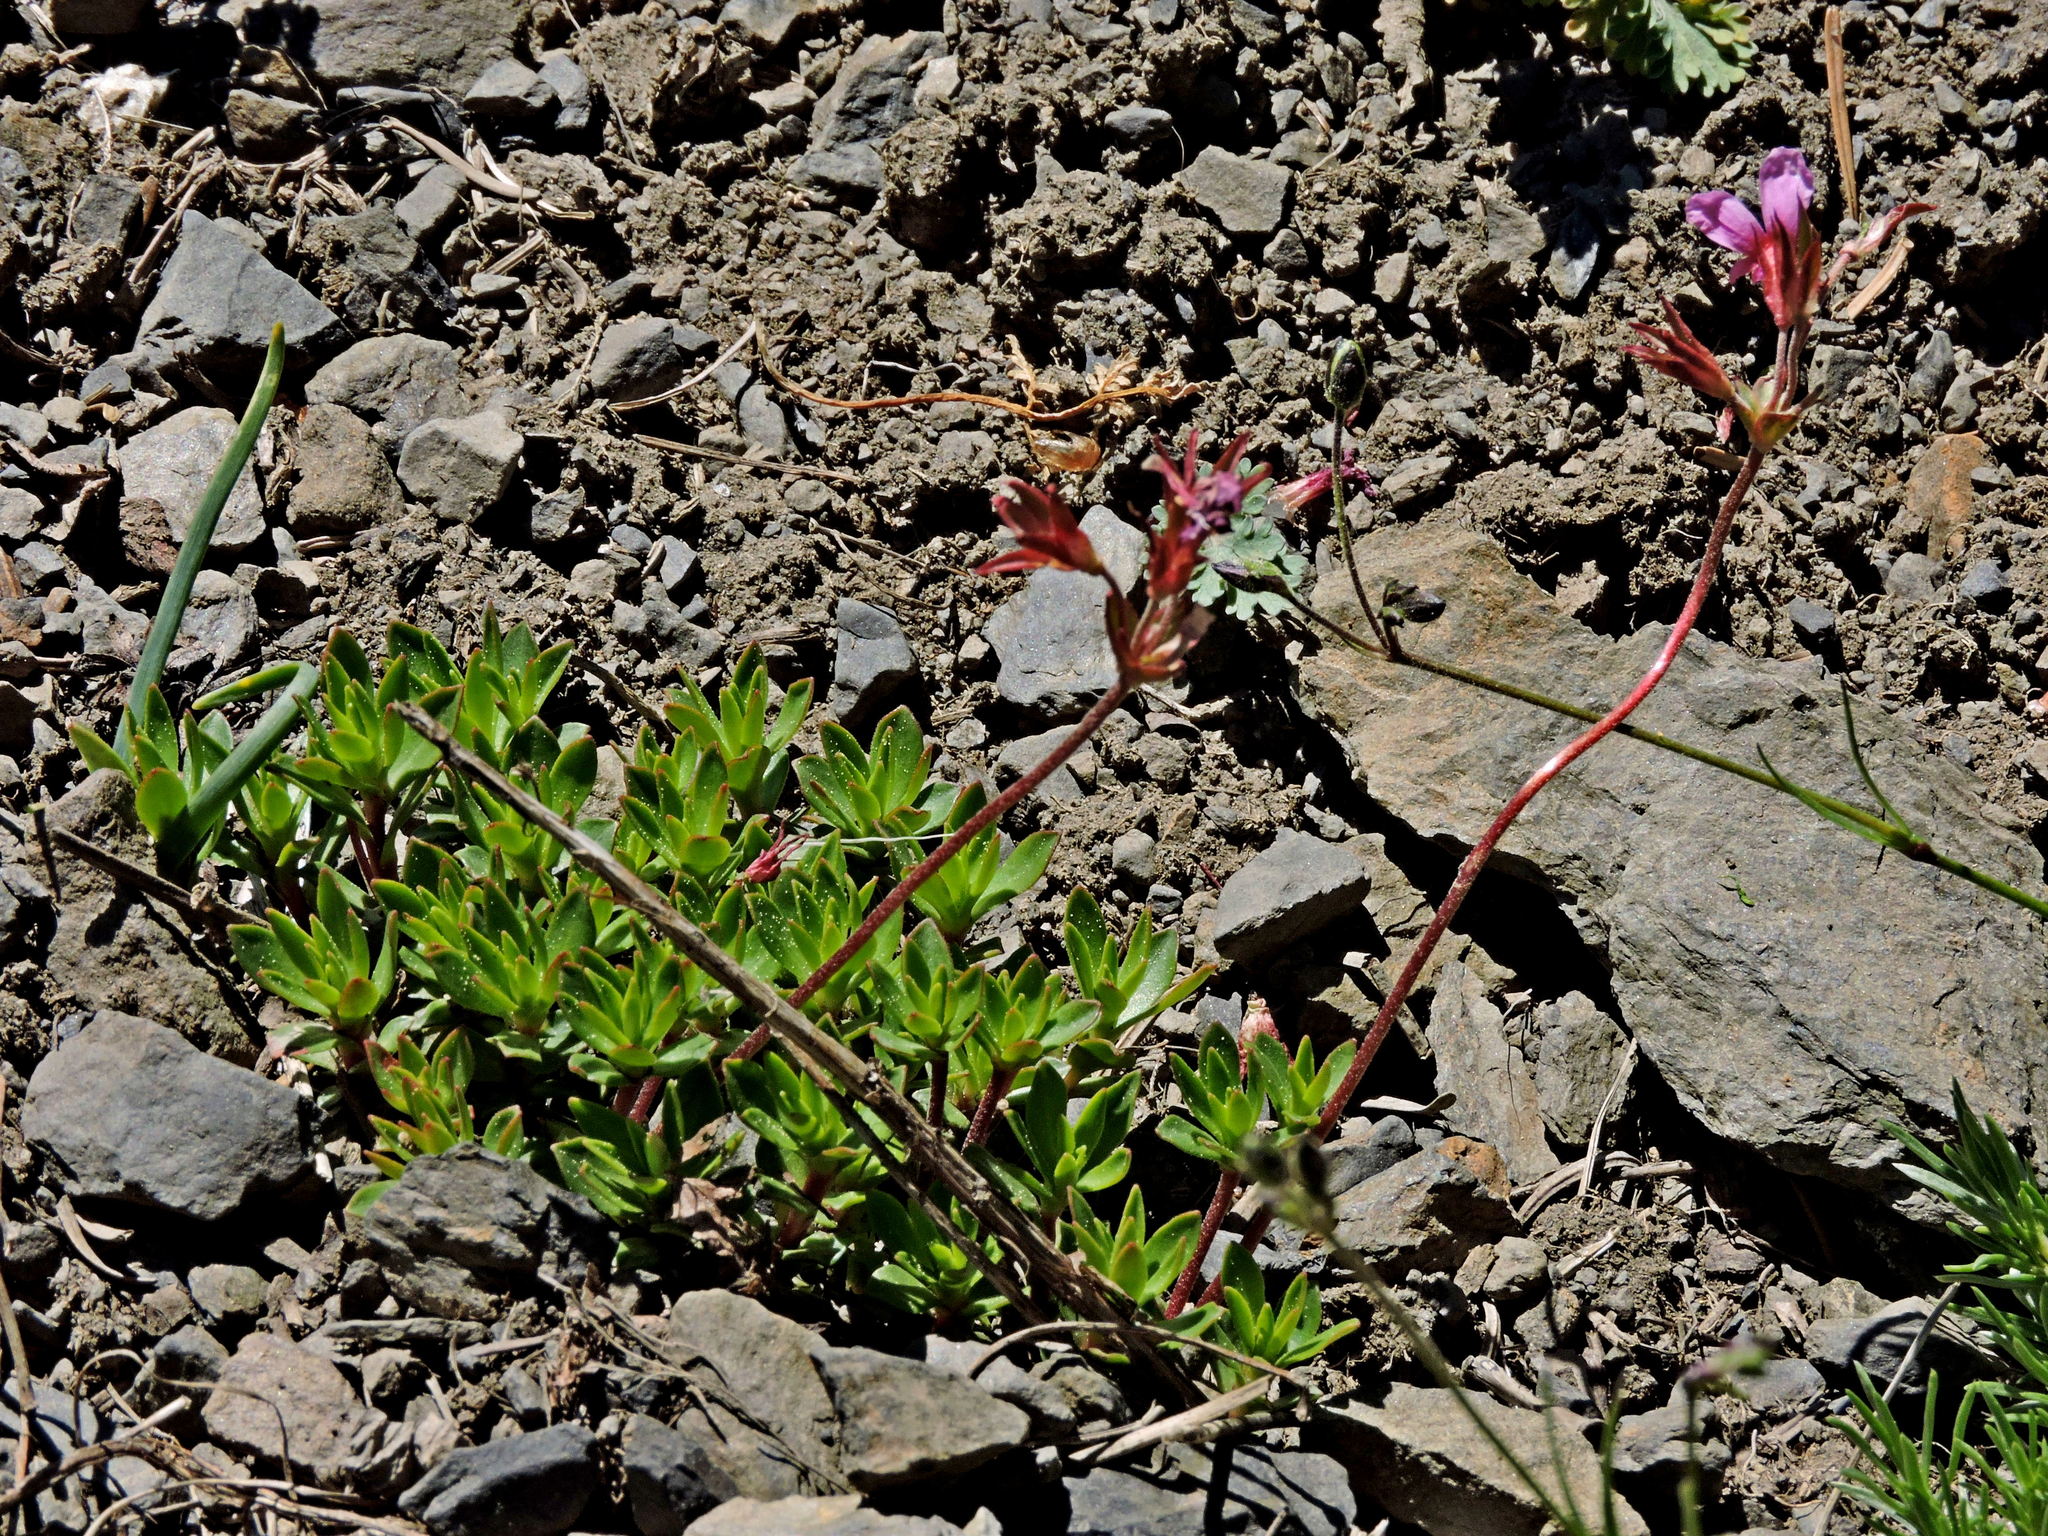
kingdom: Plantae
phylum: Tracheophyta
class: Magnoliopsida
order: Ericales
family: Primulaceae
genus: Androsace
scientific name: Androsace laevigata
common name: Cliff dwarf-primrose
